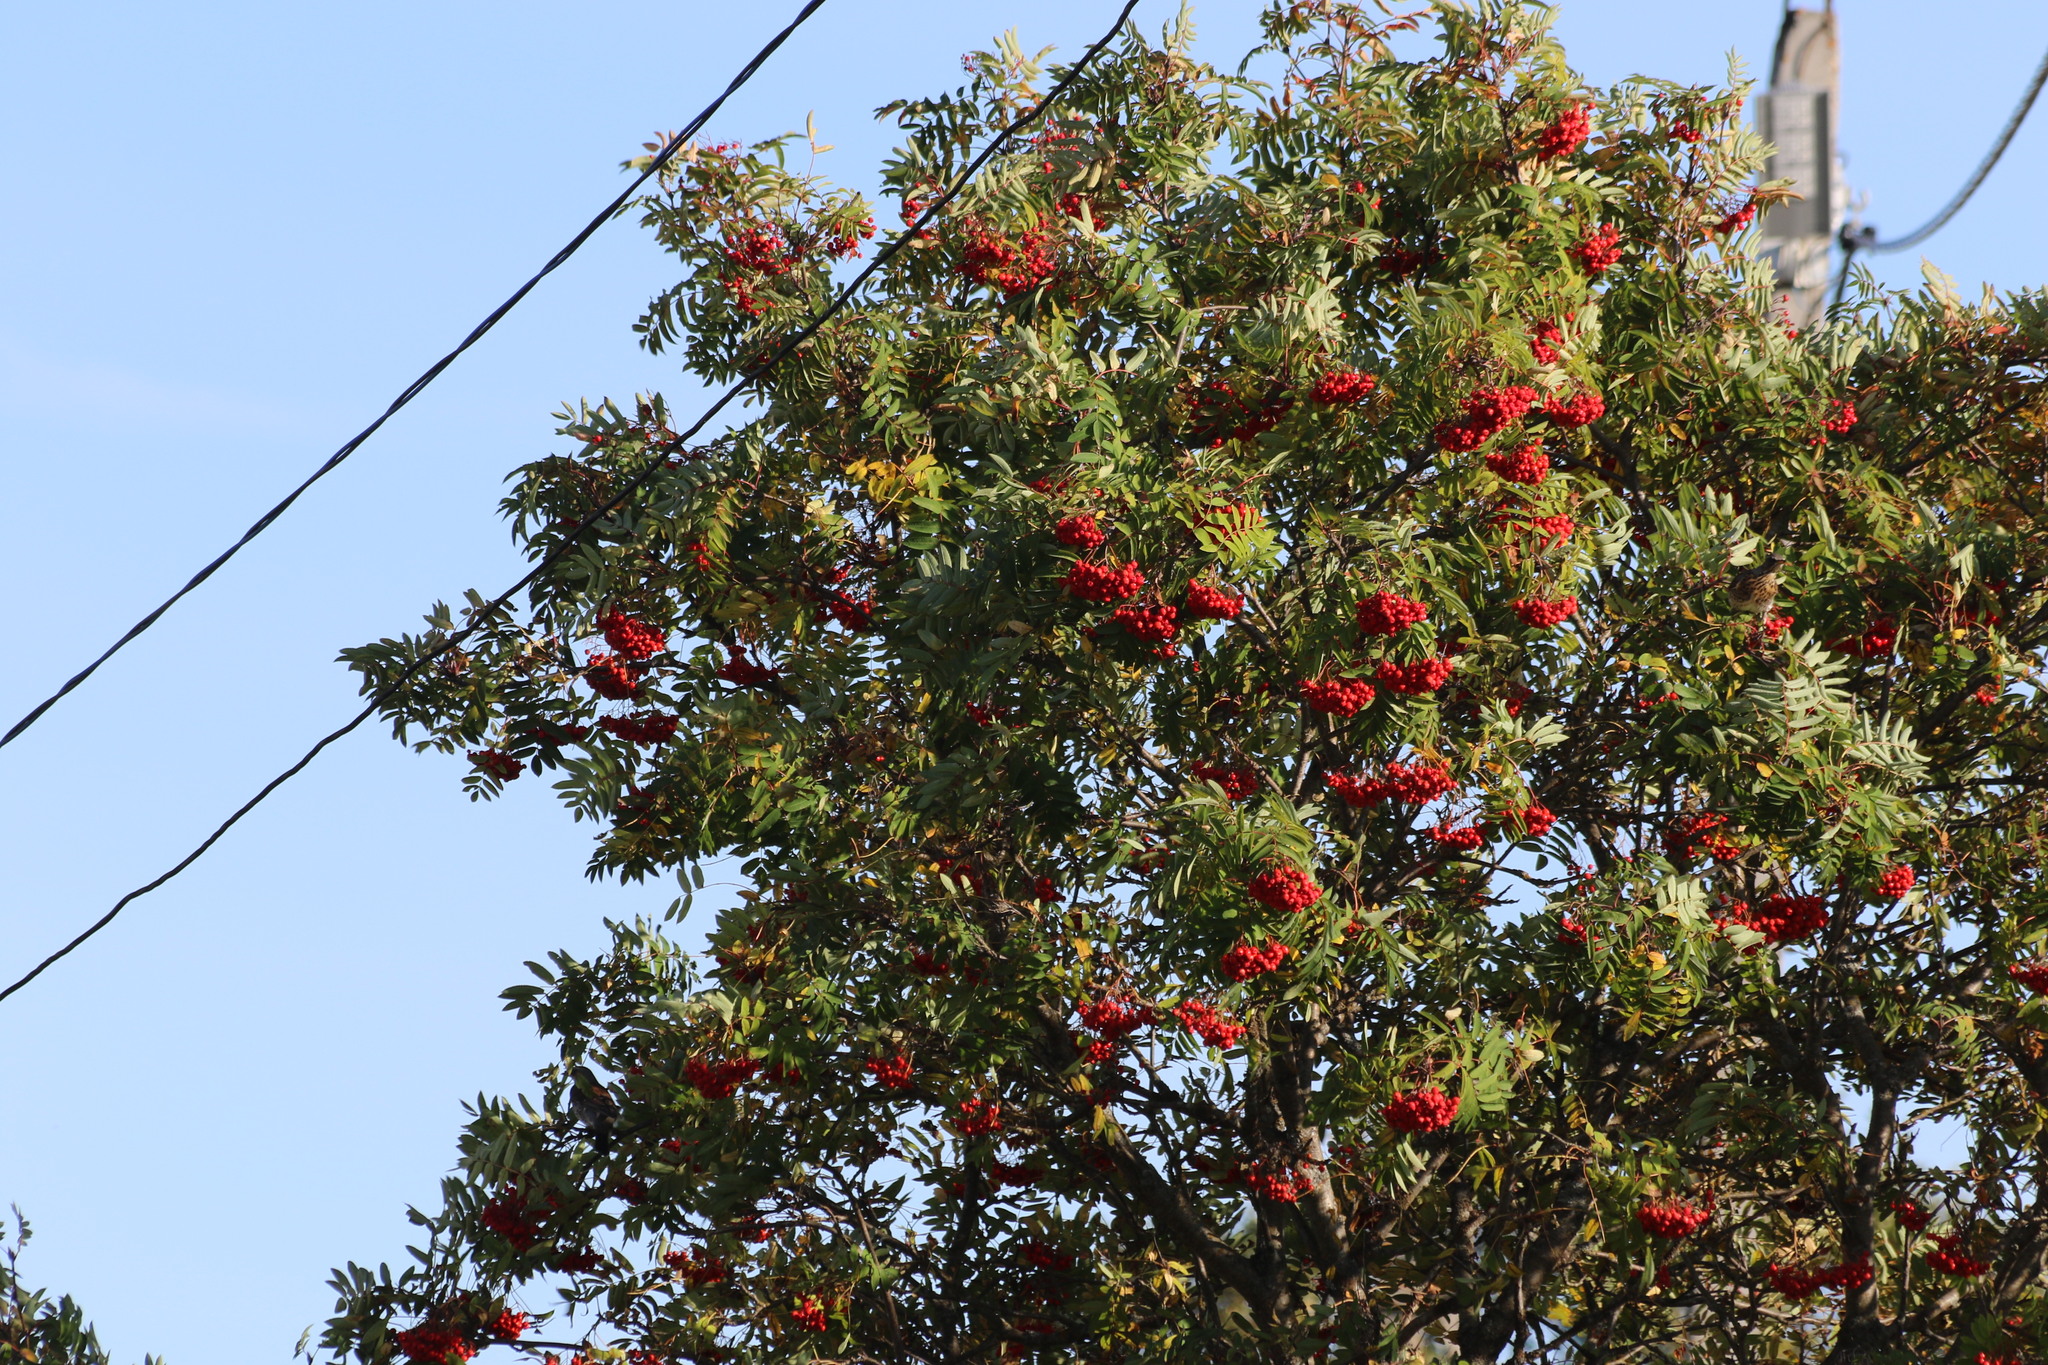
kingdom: Animalia
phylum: Chordata
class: Aves
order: Passeriformes
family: Turdidae
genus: Turdus
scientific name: Turdus pilaris
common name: Fieldfare
